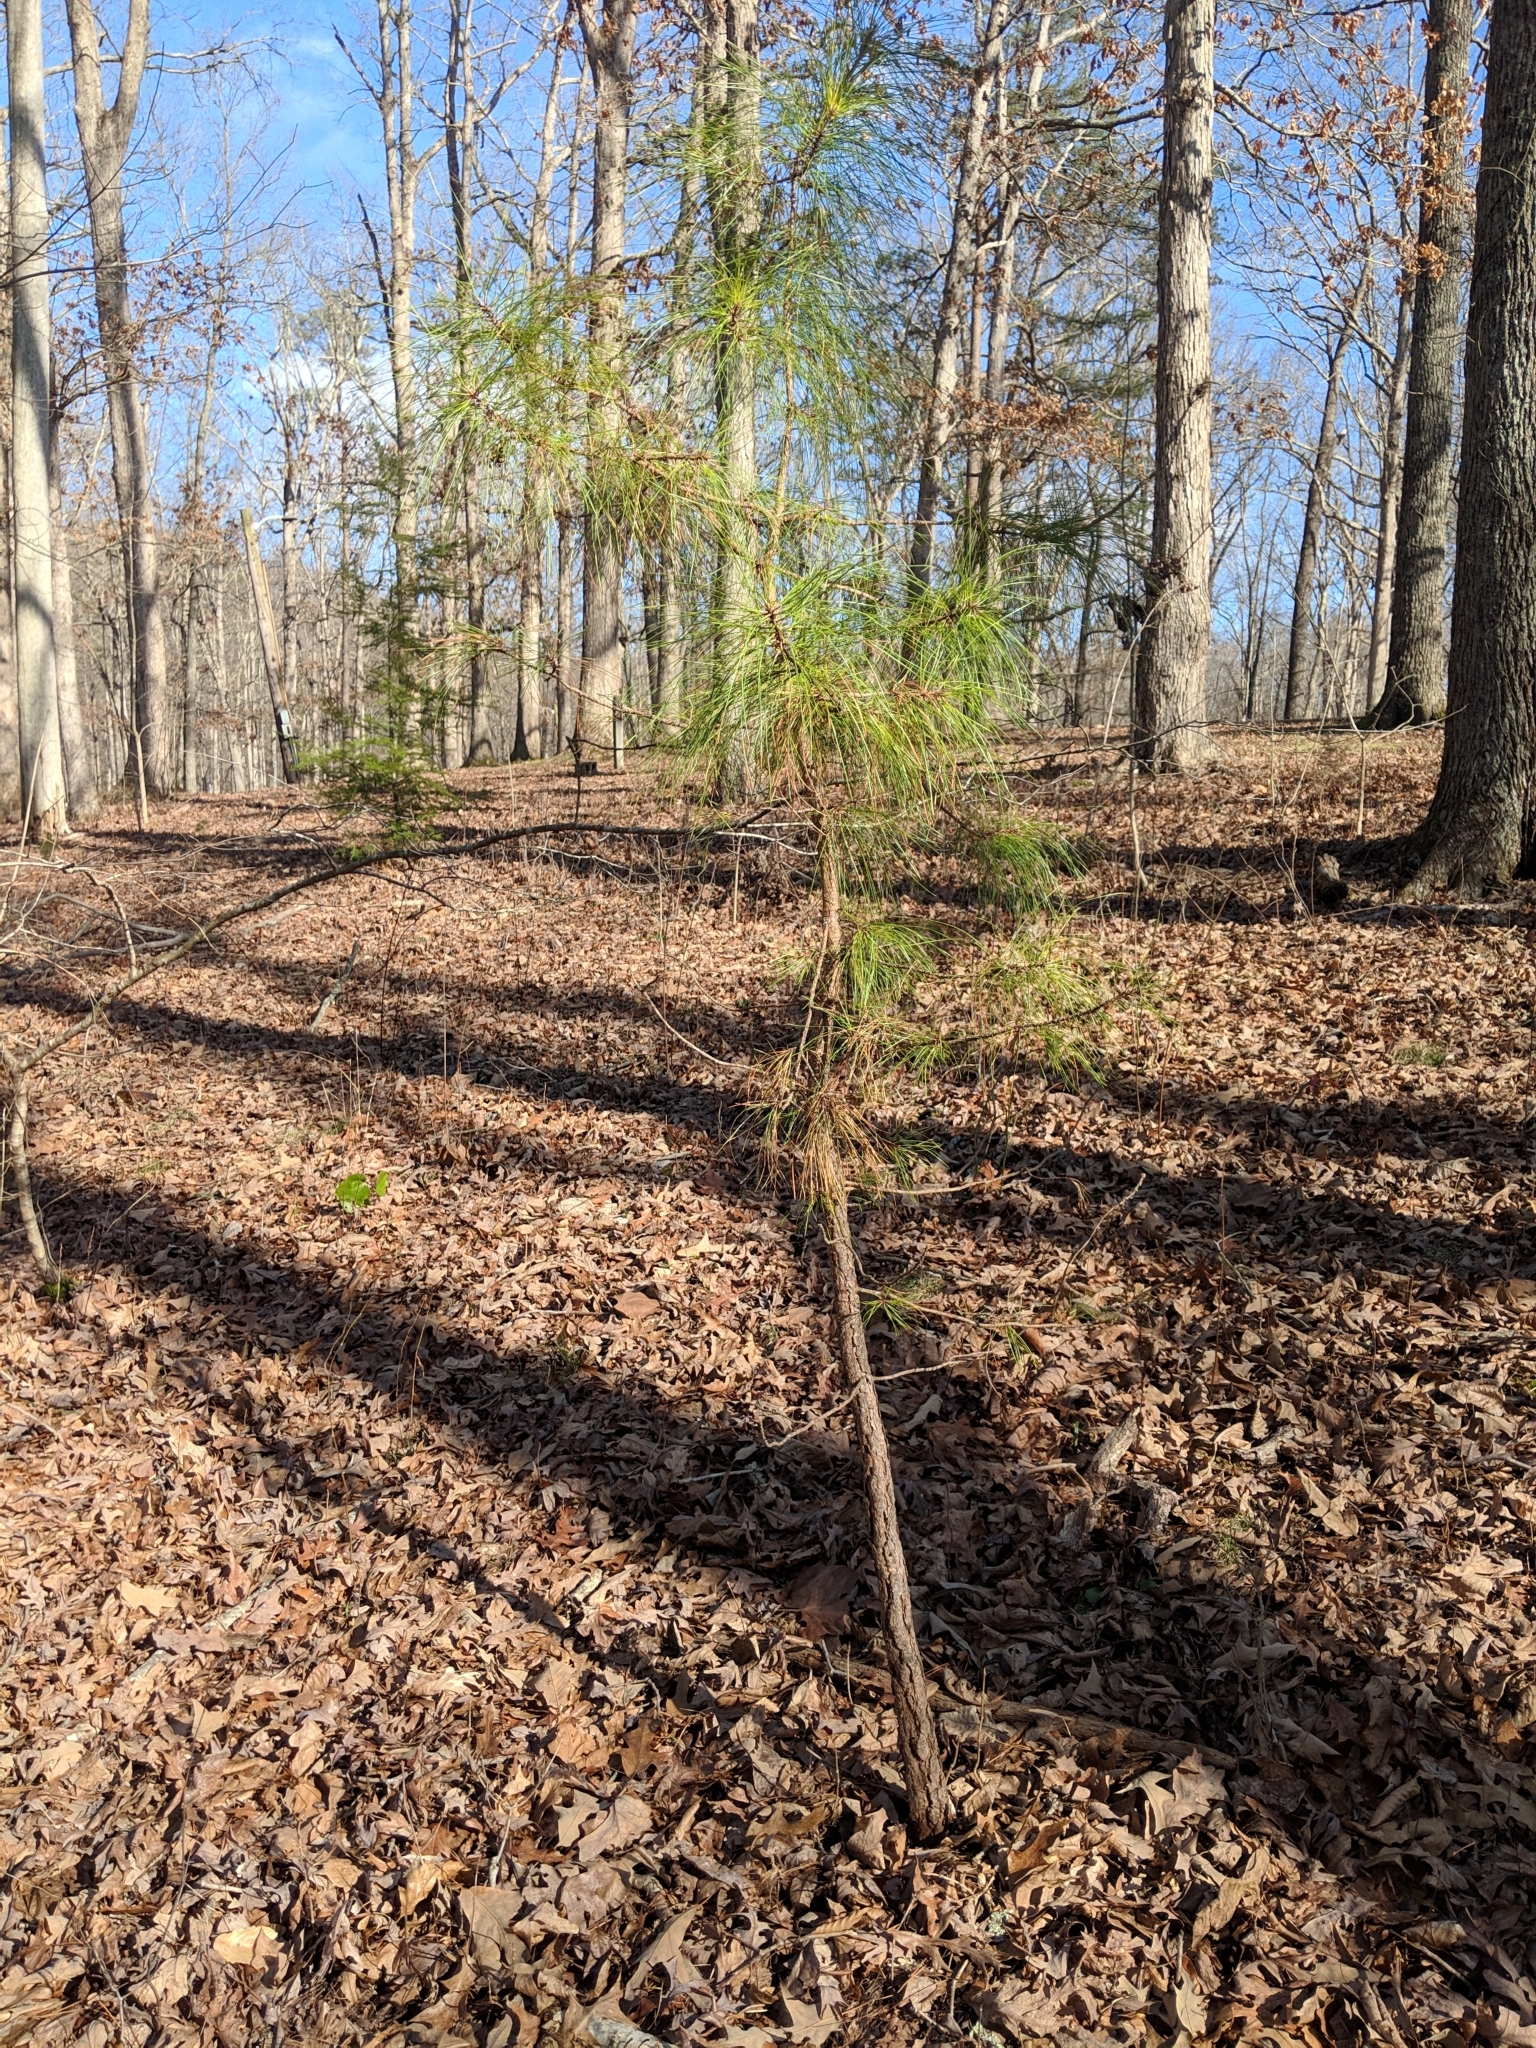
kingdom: Plantae
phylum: Tracheophyta
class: Pinopsida
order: Pinales
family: Pinaceae
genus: Pinus
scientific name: Pinus taeda
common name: Loblolly pine
